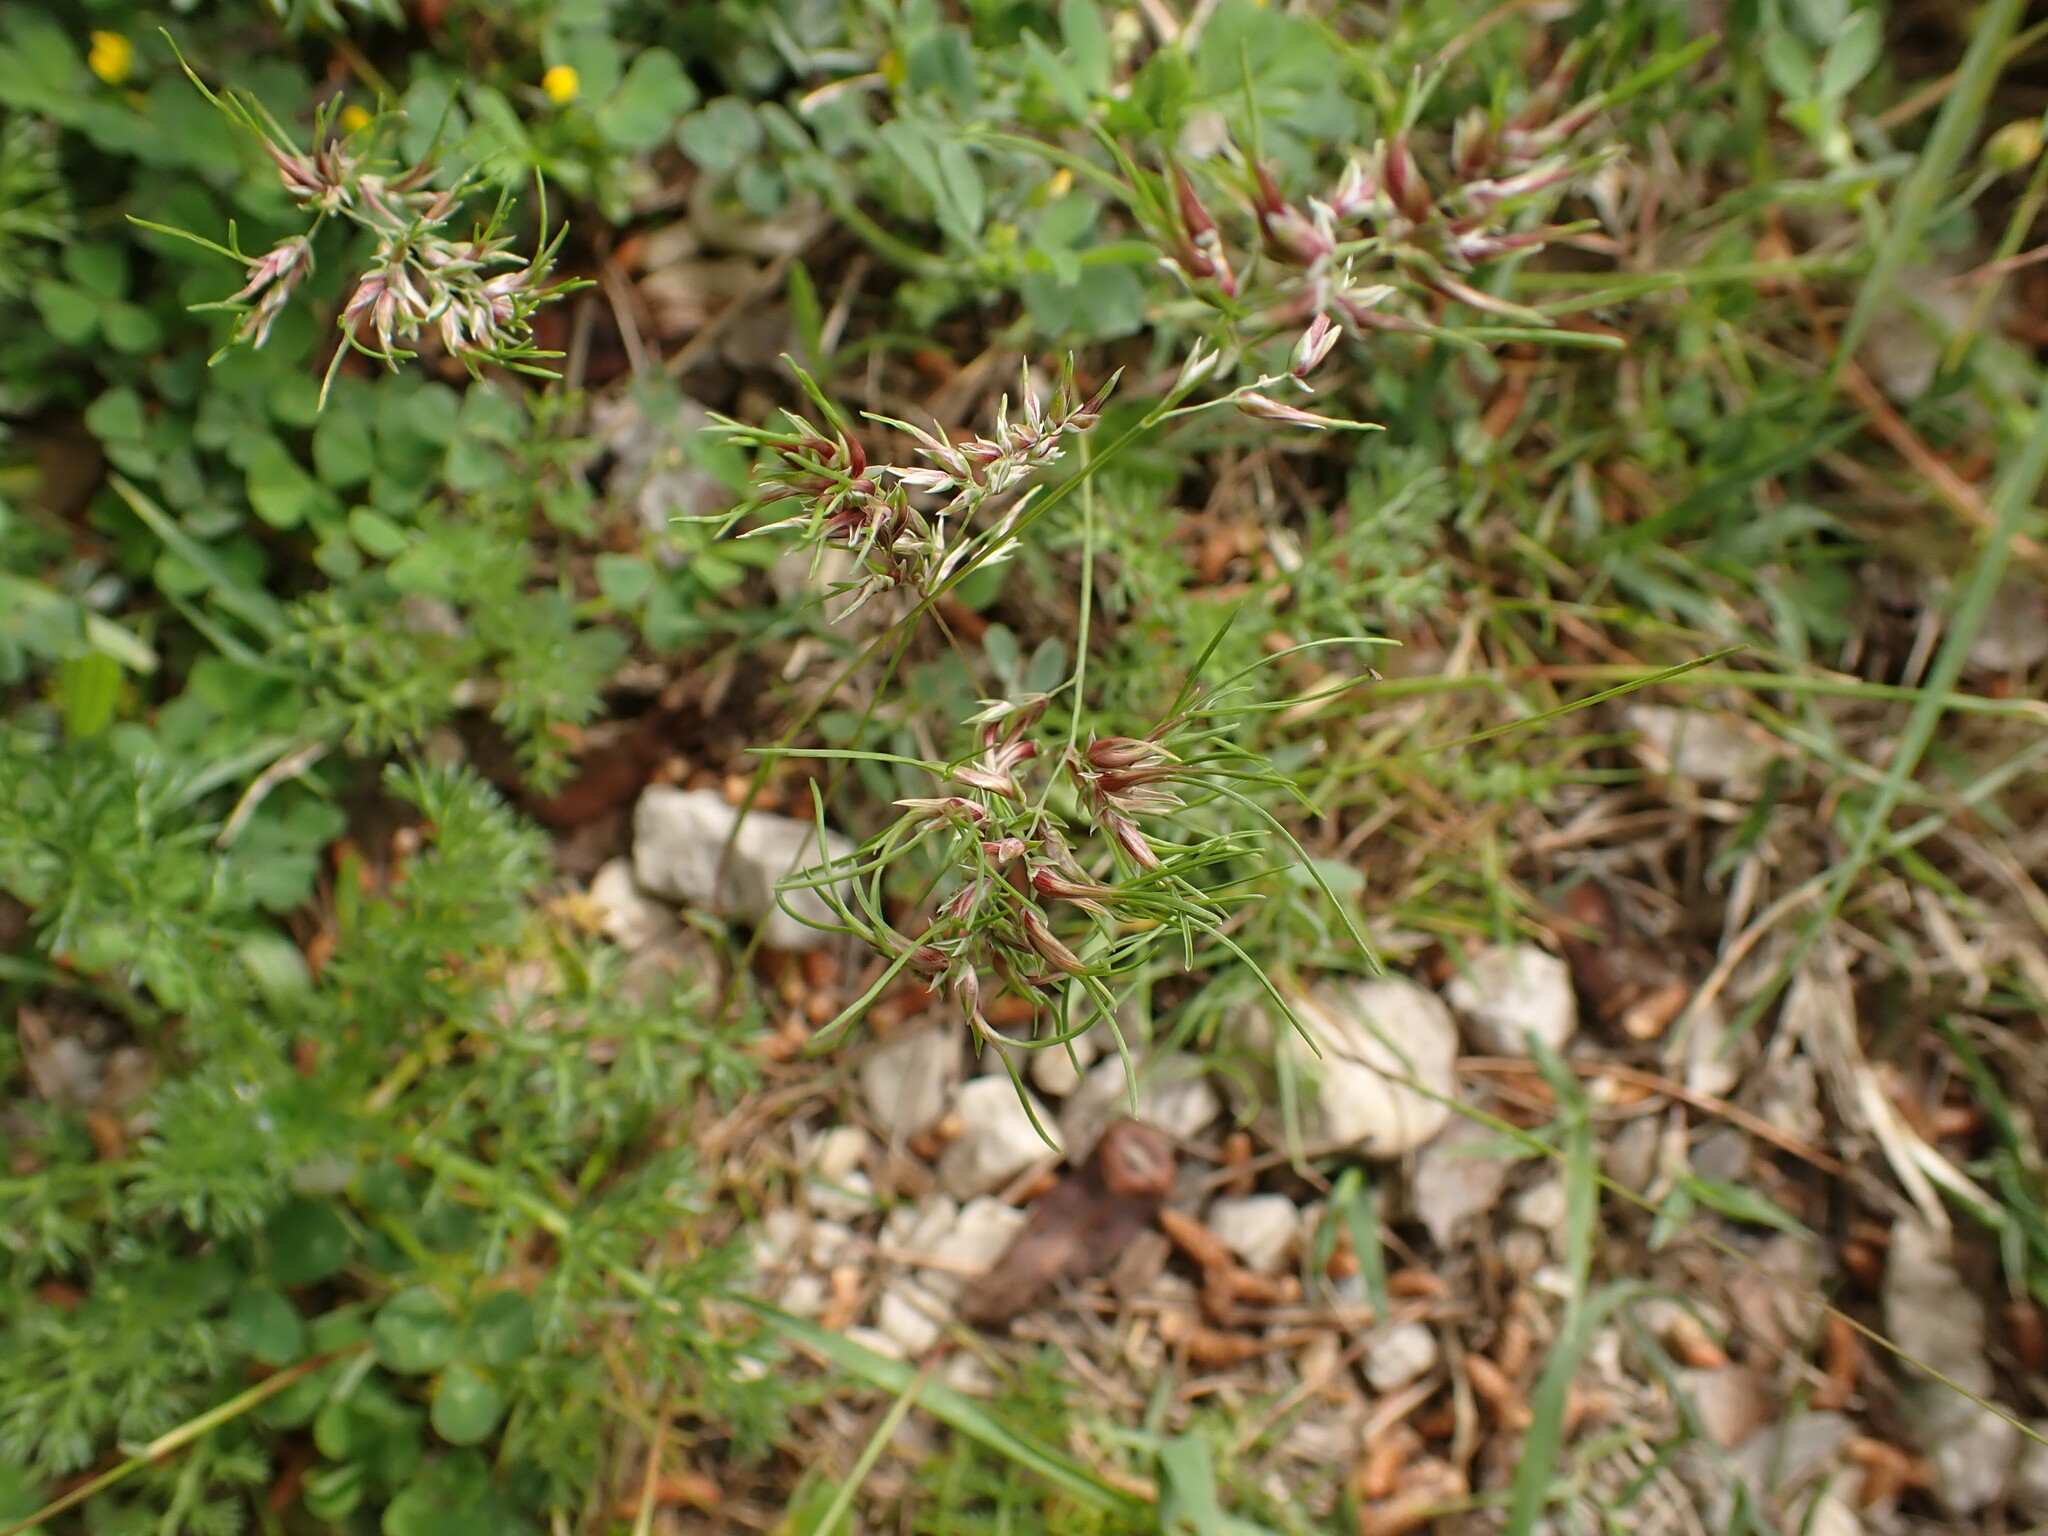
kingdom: Plantae
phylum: Tracheophyta
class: Liliopsida
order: Poales
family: Poaceae
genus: Poa
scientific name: Poa bulbosa
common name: Bulbous bluegrass
